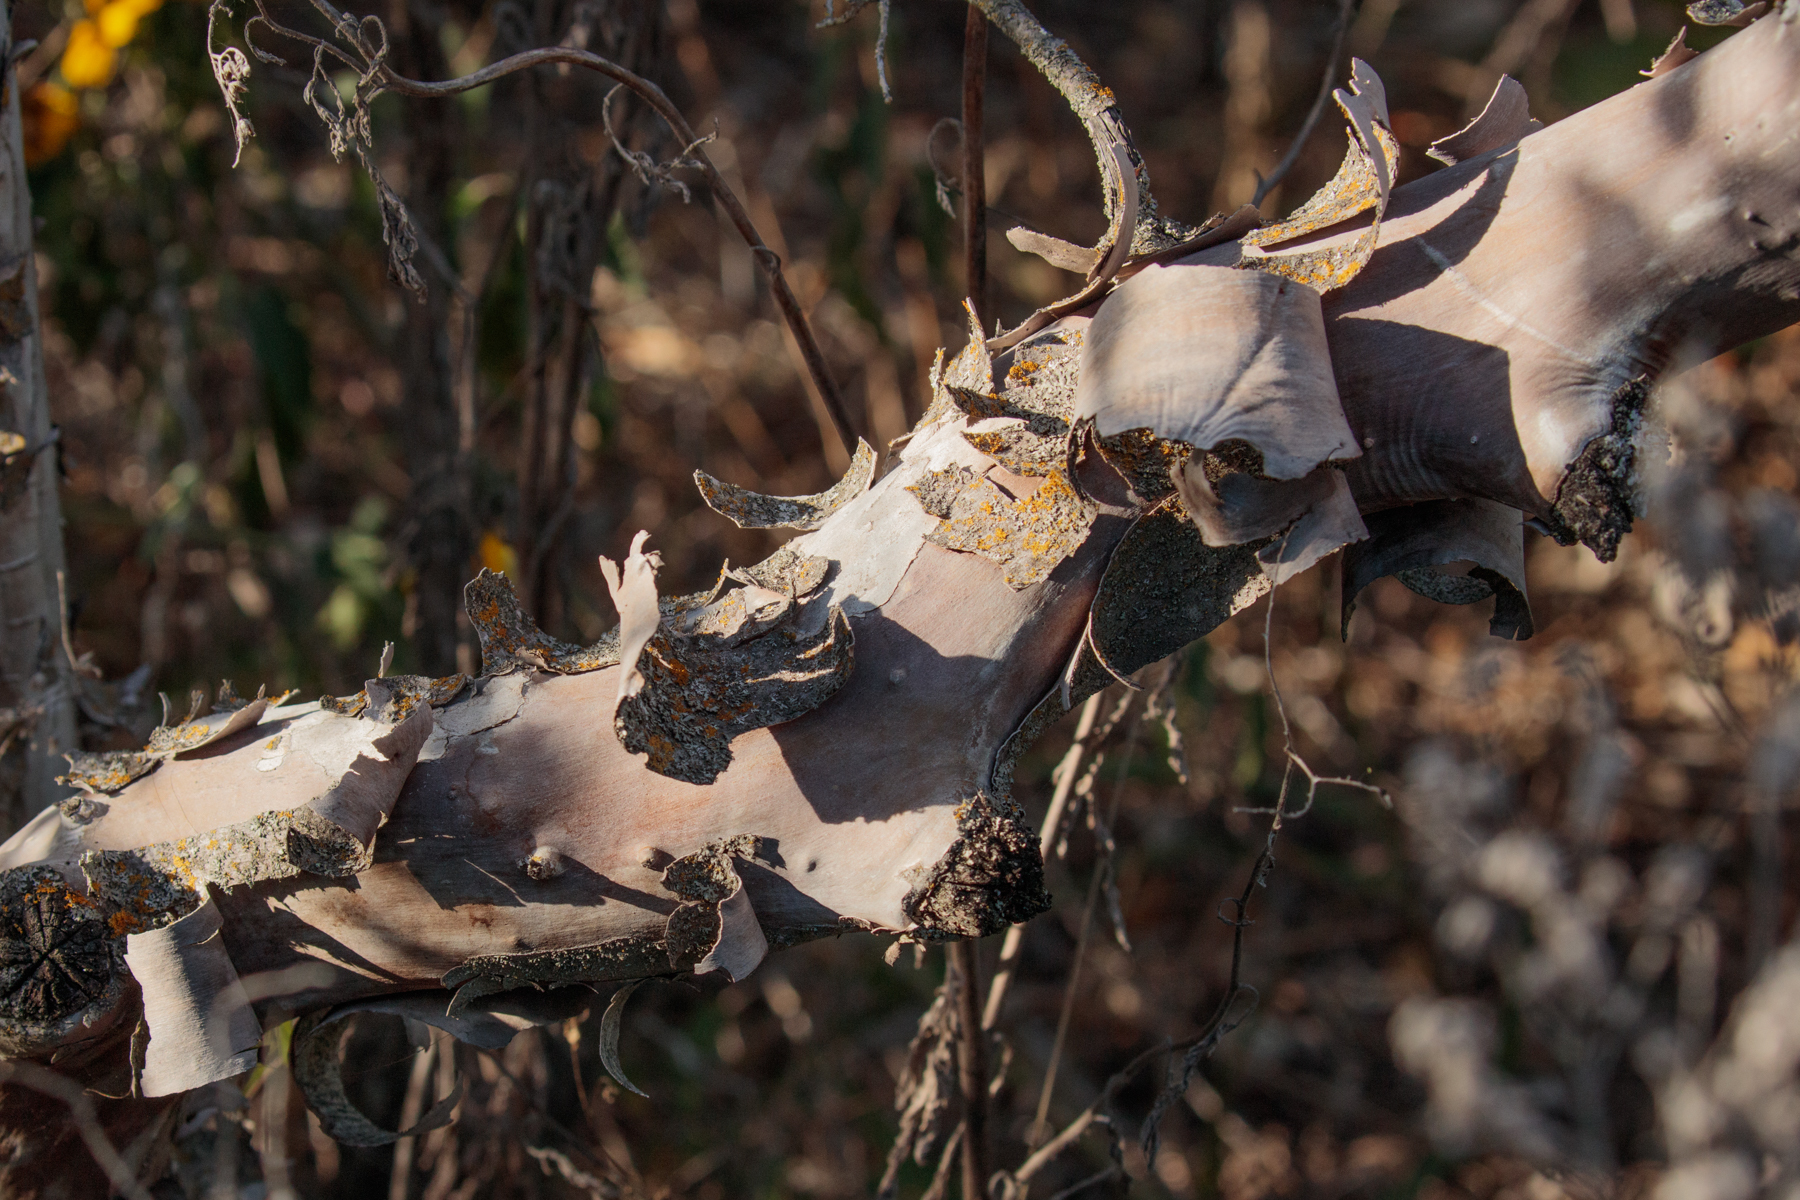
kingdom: Plantae
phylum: Tracheophyta
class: Magnoliopsida
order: Ericales
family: Ebenaceae
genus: Diospyros
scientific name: Diospyros texana
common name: Texas persimmon
